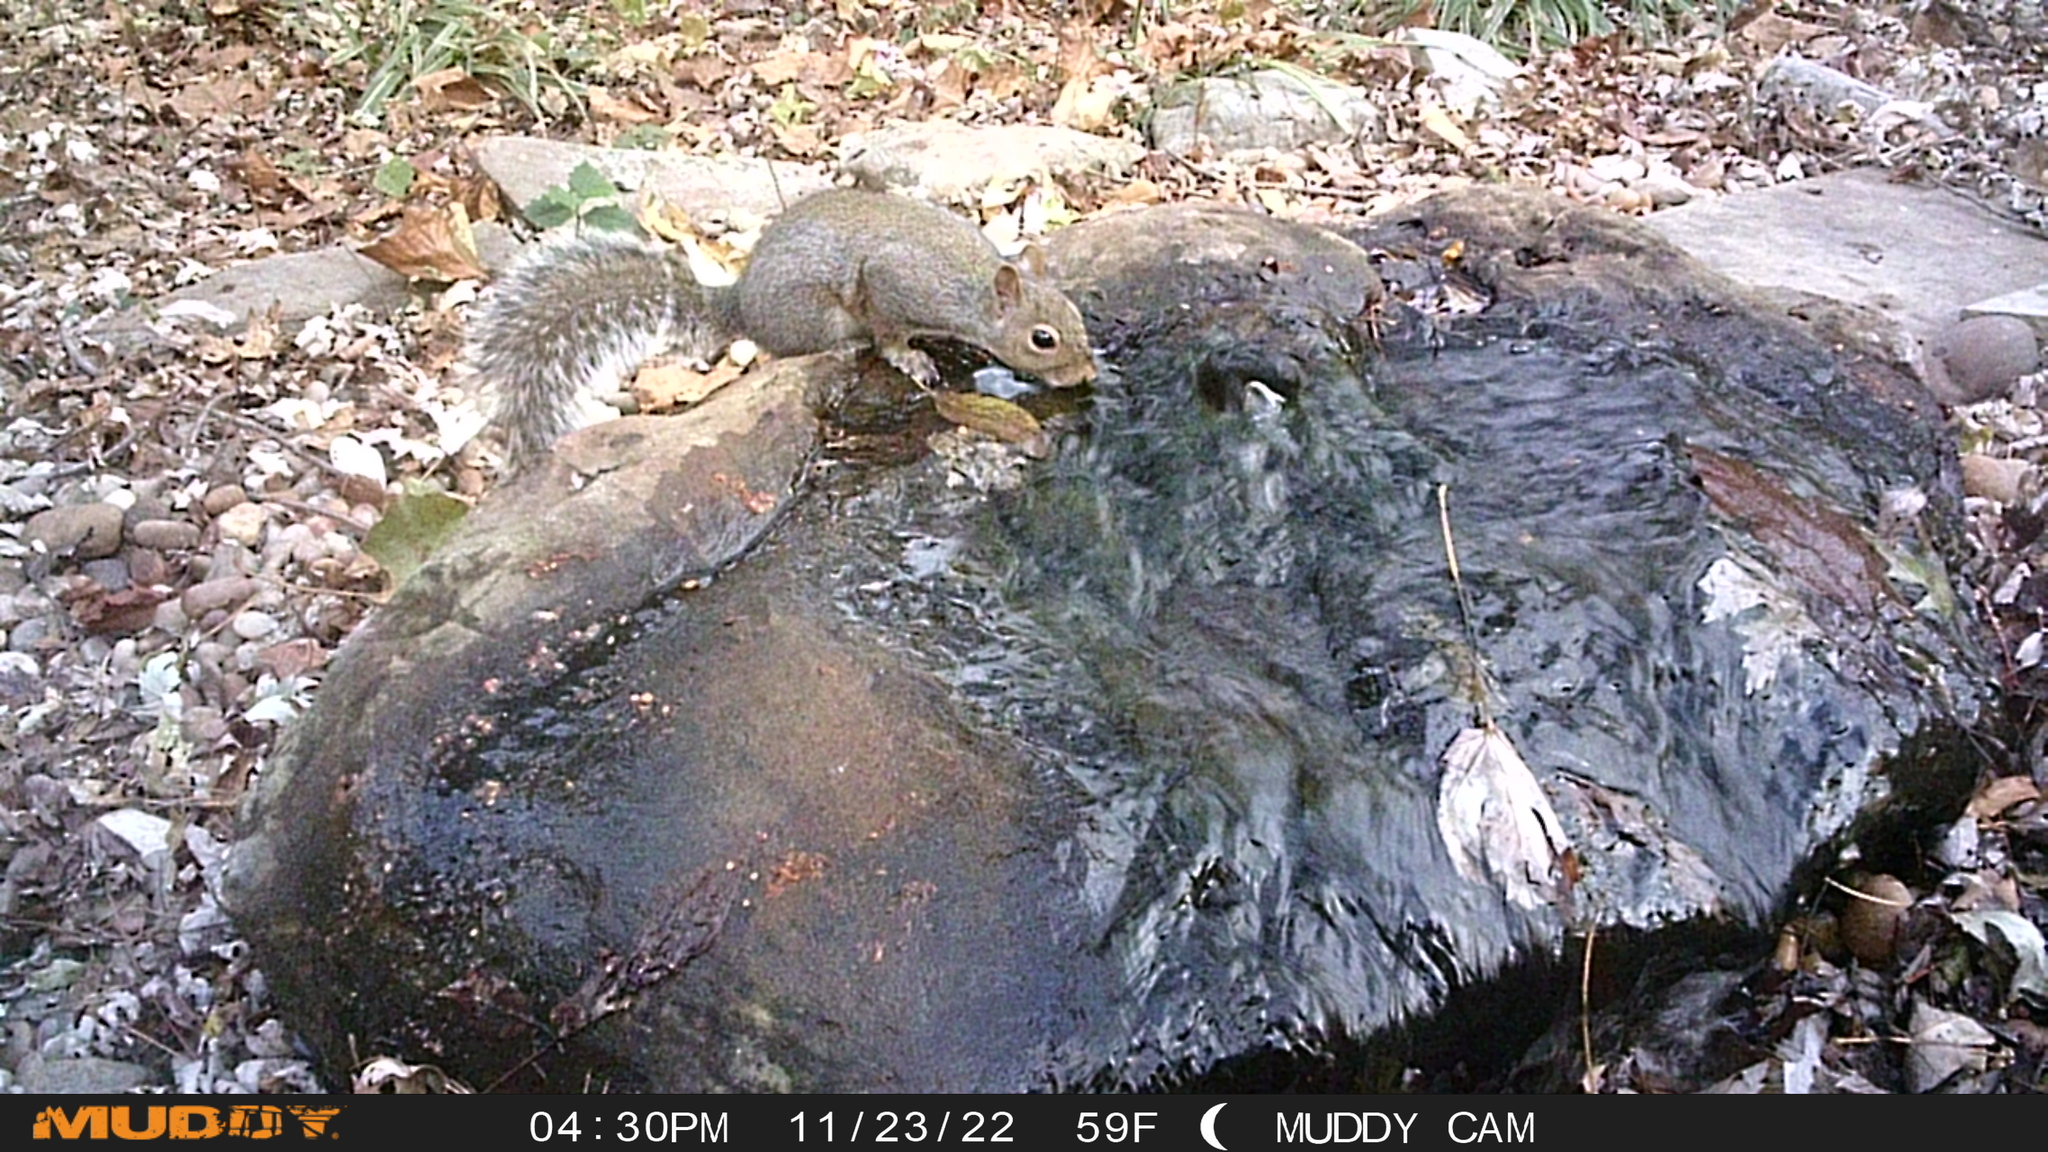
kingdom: Animalia
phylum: Chordata
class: Mammalia
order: Rodentia
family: Sciuridae
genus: Sciurus
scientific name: Sciurus carolinensis
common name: Eastern gray squirrel
